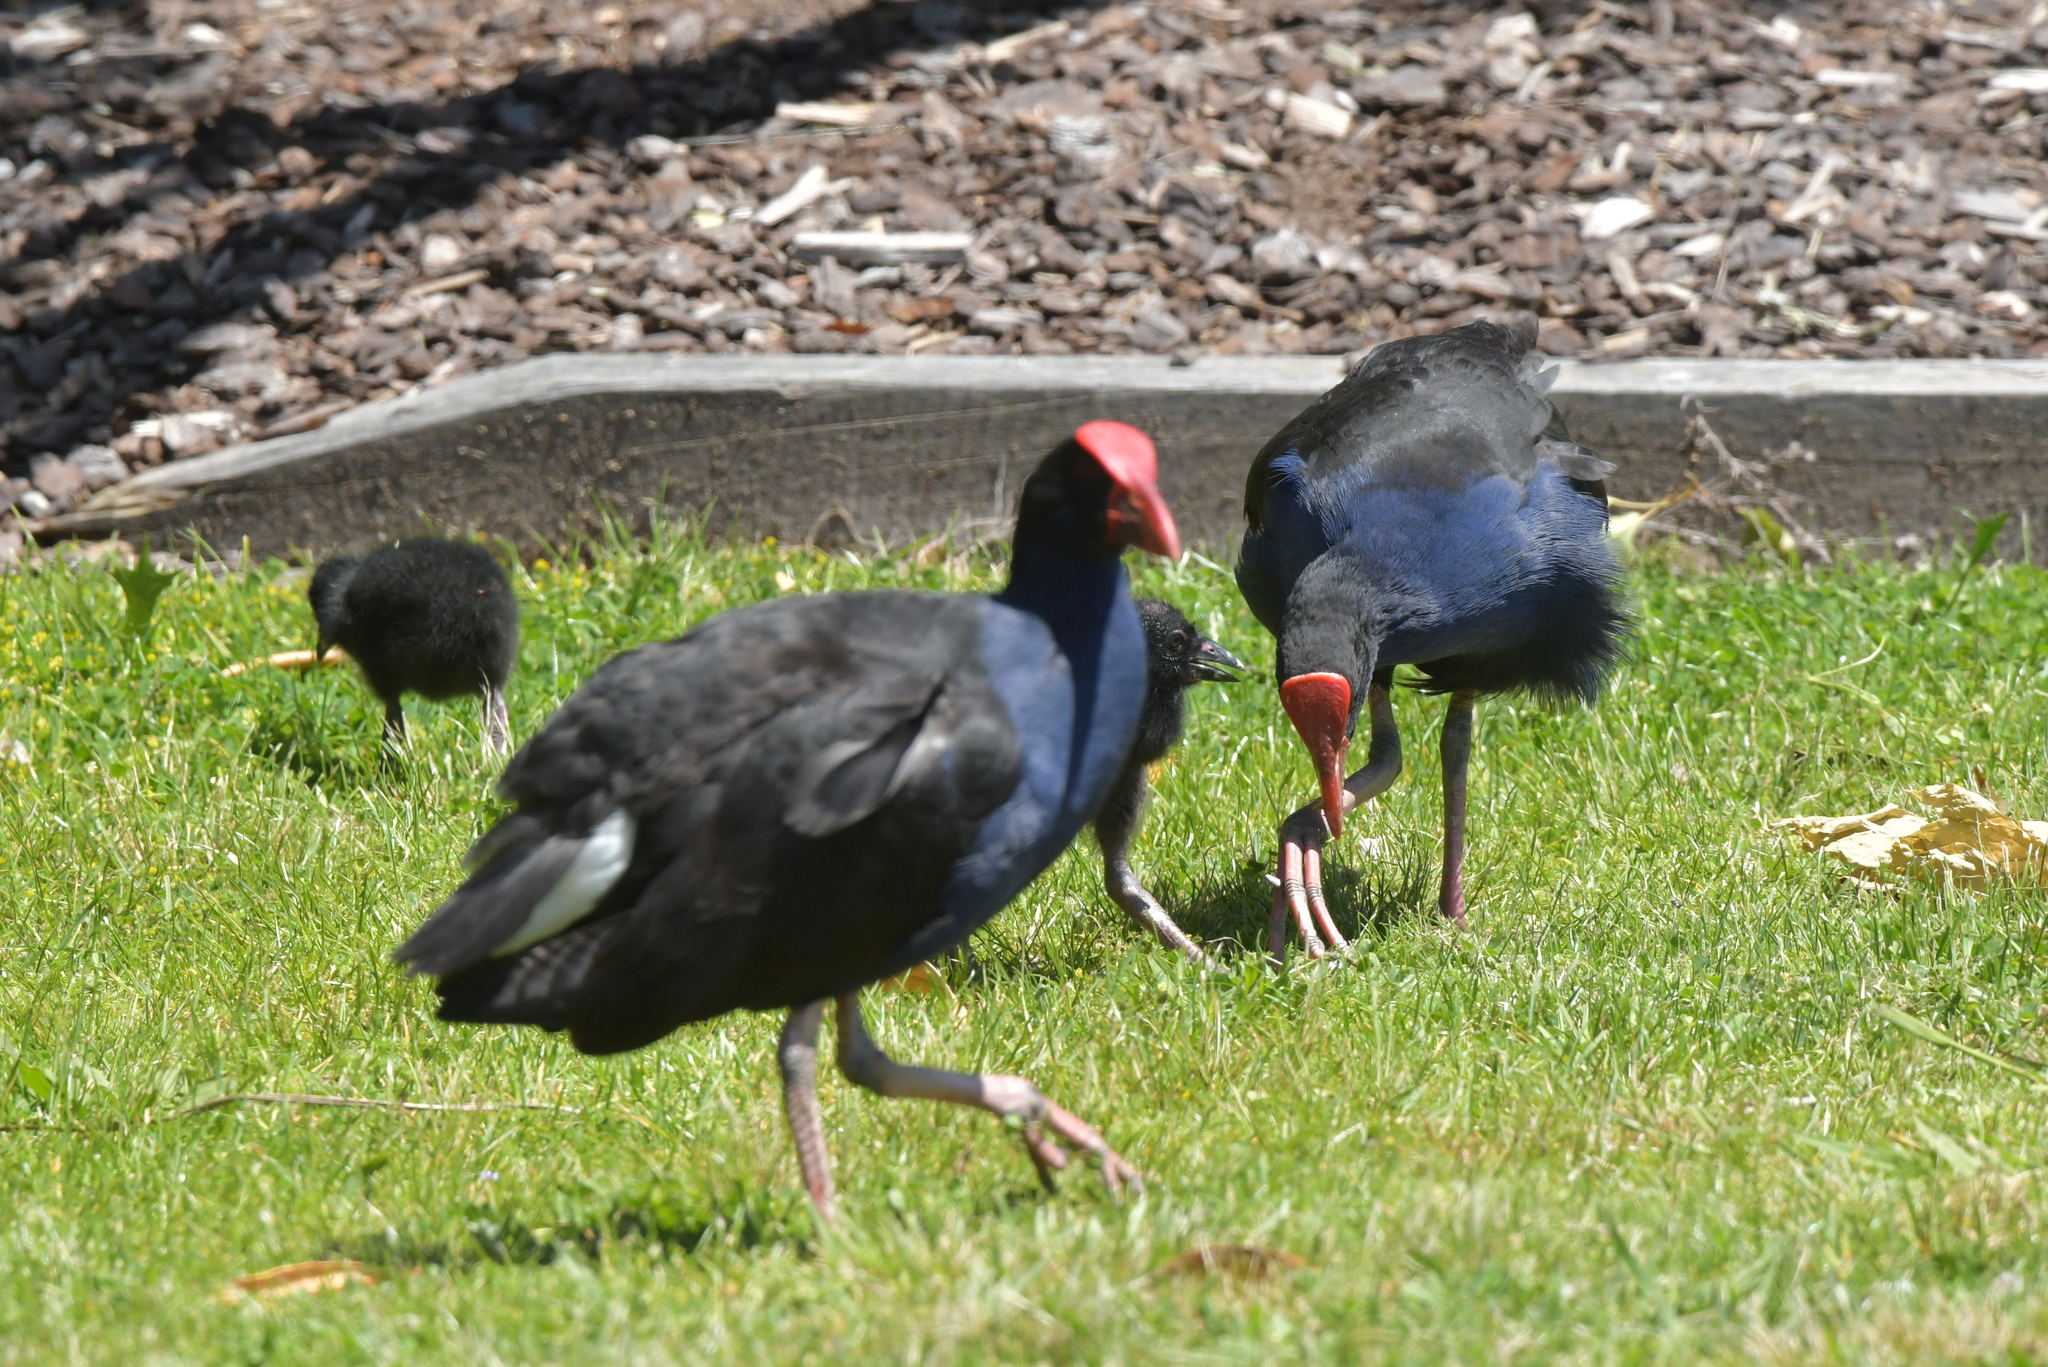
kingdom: Animalia
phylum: Chordata
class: Aves
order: Gruiformes
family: Rallidae
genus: Porphyrio
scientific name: Porphyrio melanotus
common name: Australasian swamphen
